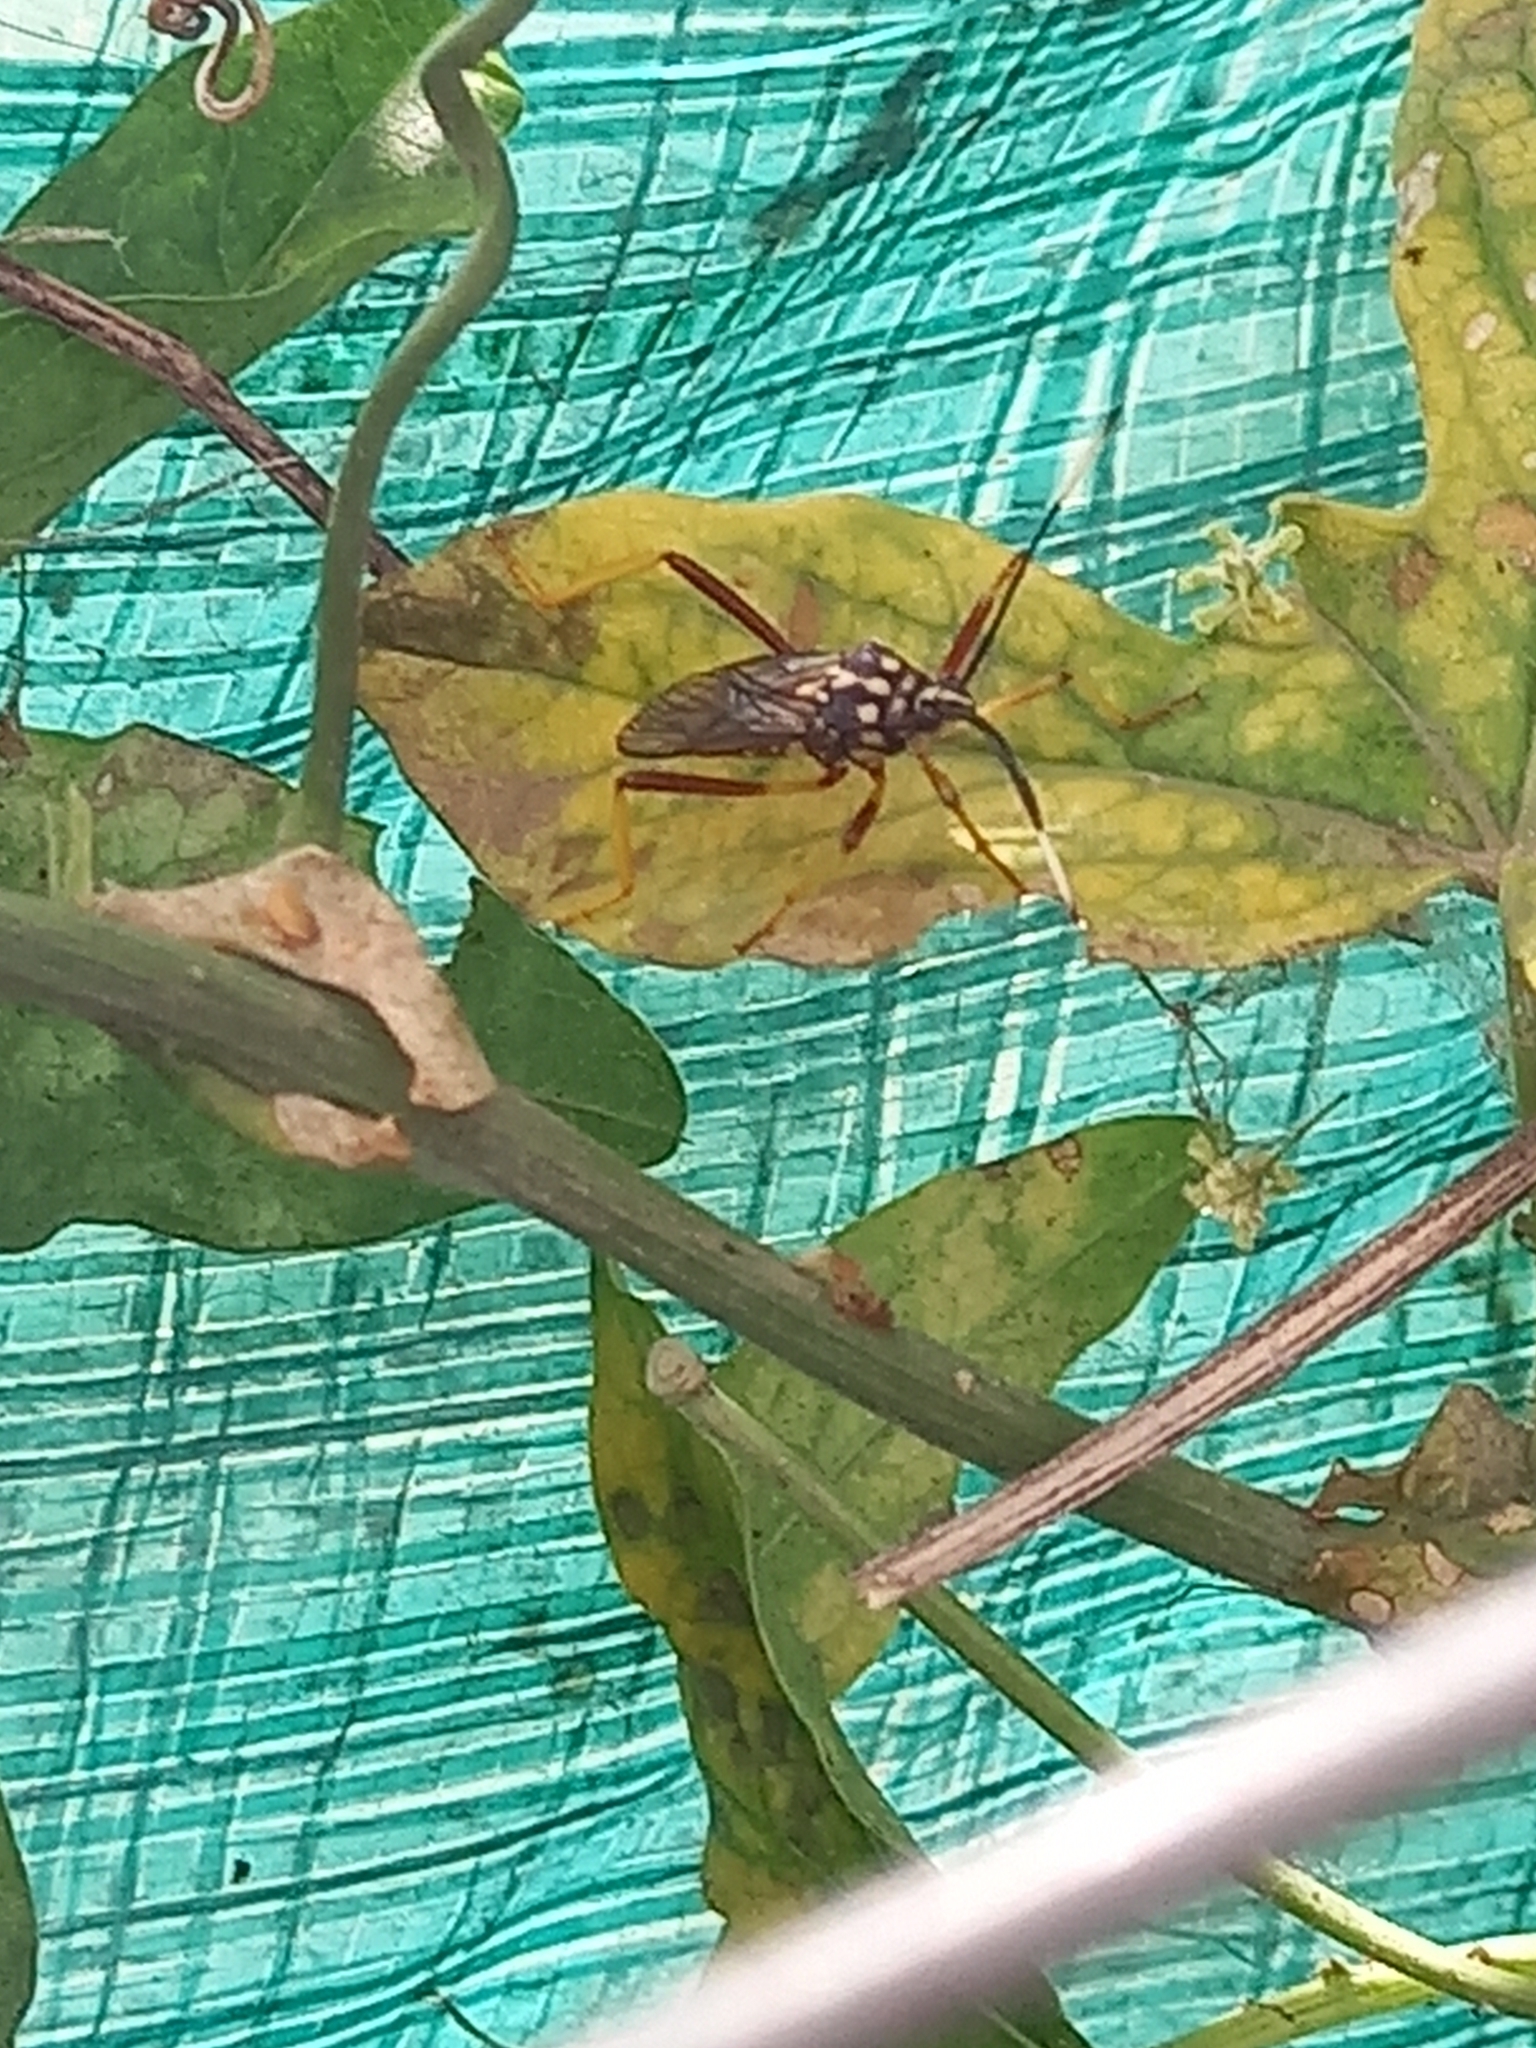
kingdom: Animalia
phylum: Arthropoda
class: Insecta
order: Hemiptera
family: Coreidae
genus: Holhymenia
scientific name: Holhymenia histrio
